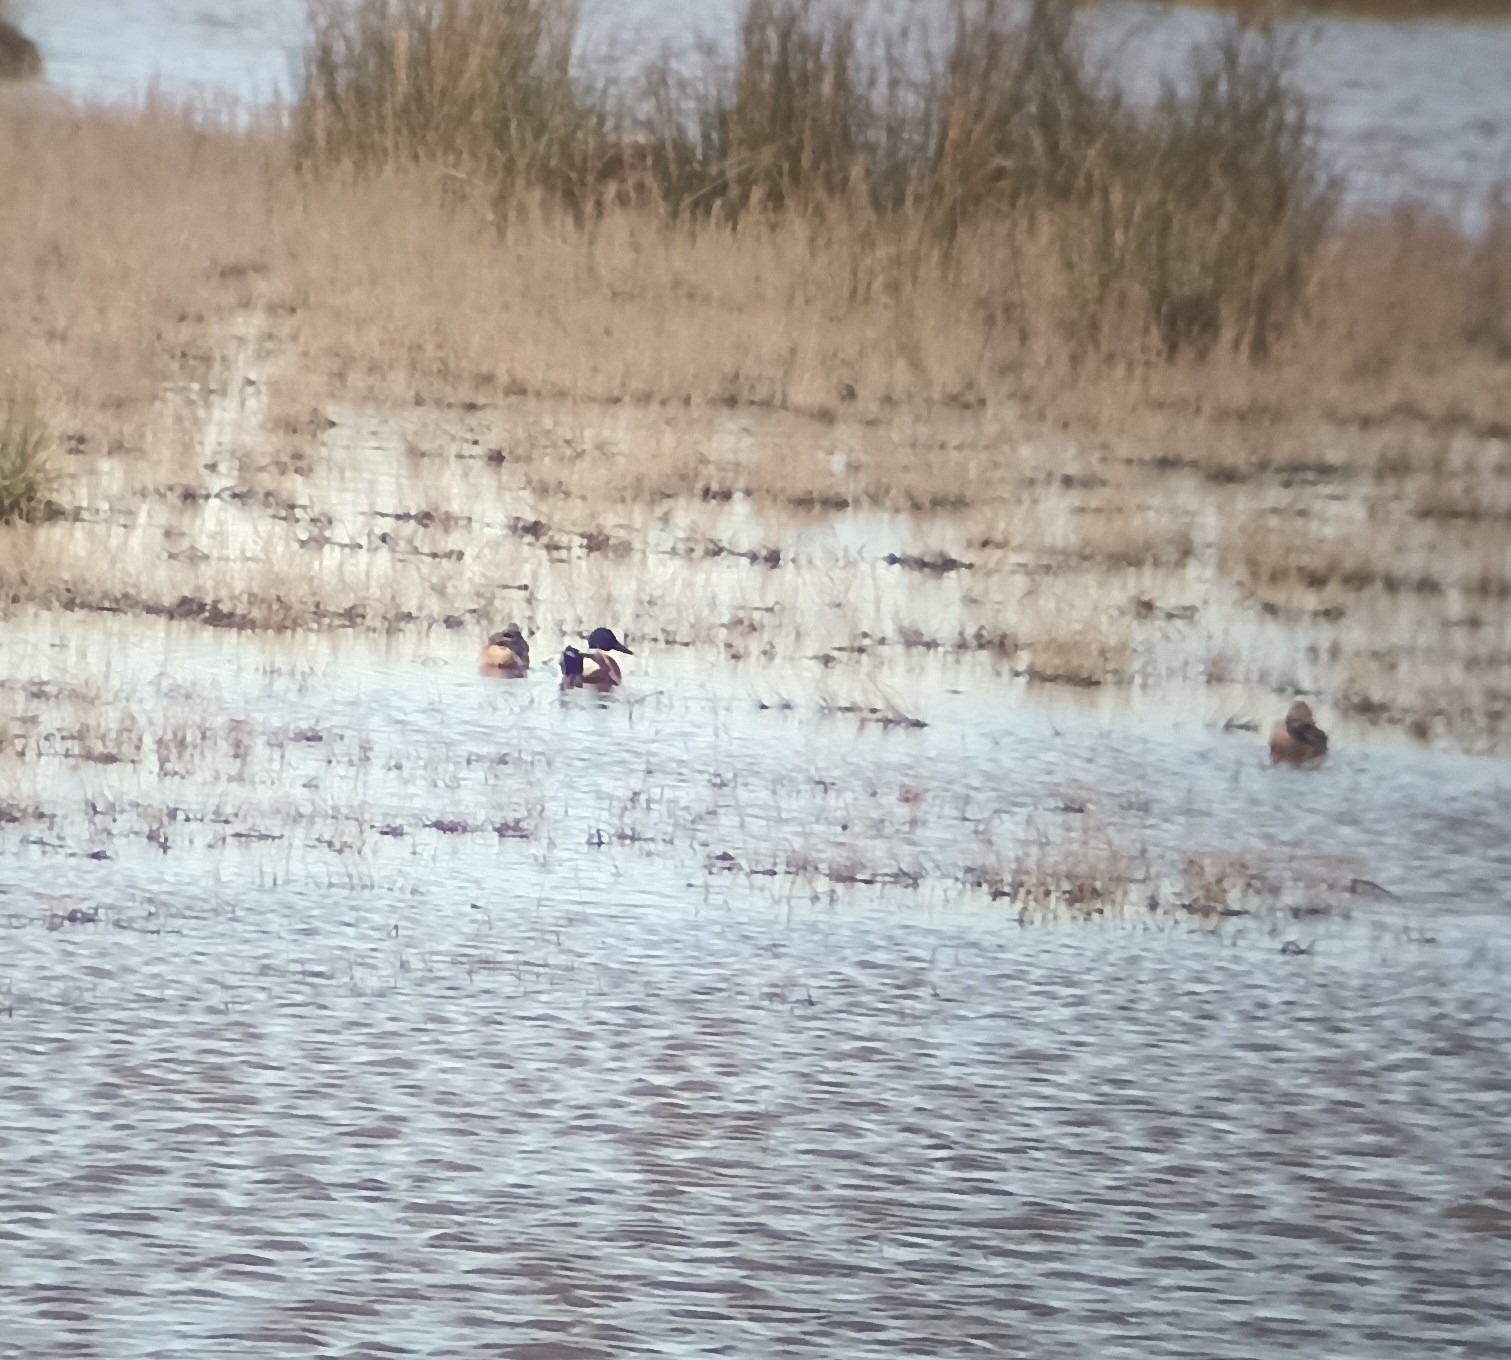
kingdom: Animalia
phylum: Chordata
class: Aves
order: Anseriformes
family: Anatidae
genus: Spatula
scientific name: Spatula clypeata
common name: Northern shoveler
